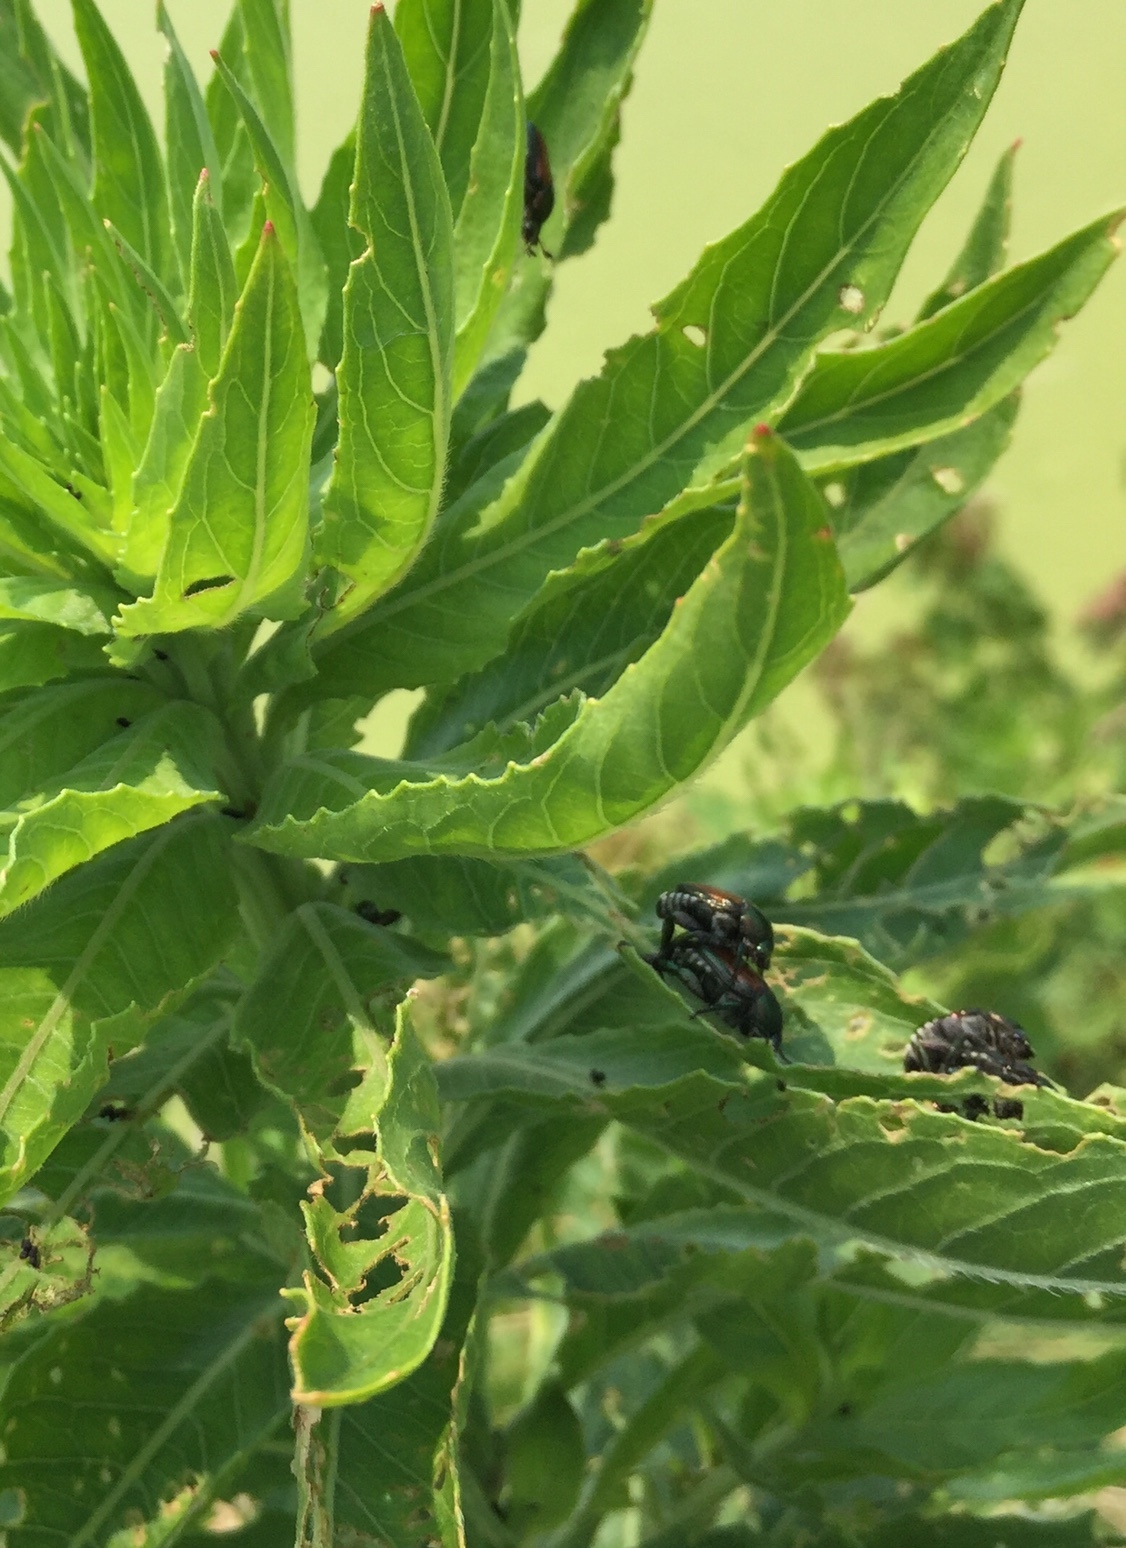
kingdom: Animalia
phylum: Arthropoda
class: Insecta
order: Coleoptera
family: Scarabaeidae
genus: Popillia
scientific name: Popillia japonica
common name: Japanese beetle
